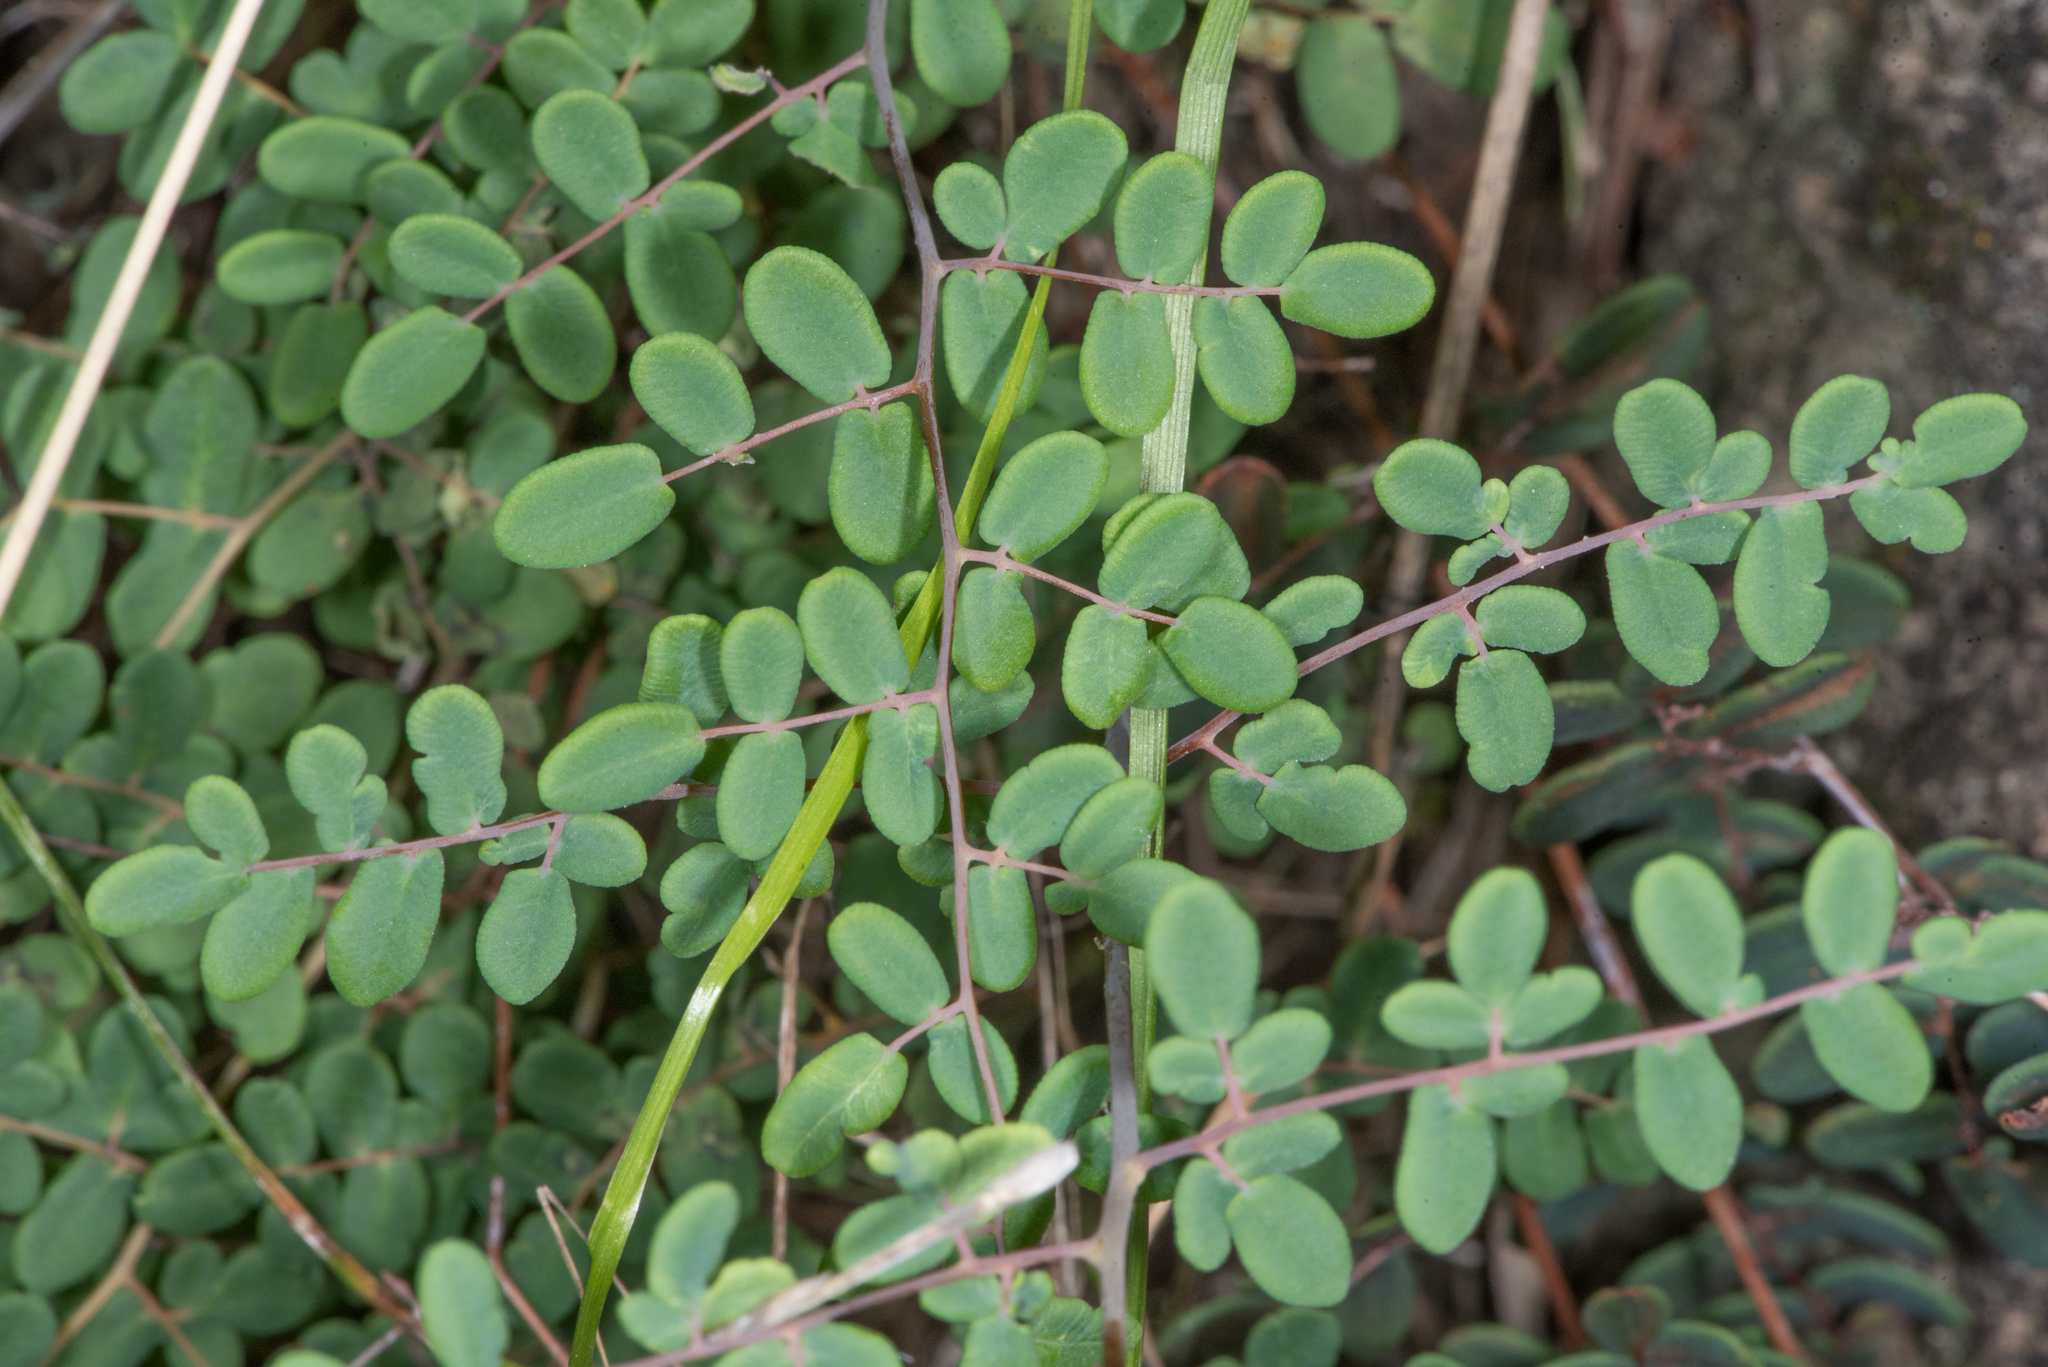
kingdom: Plantae
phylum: Tracheophyta
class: Polypodiopsida
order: Polypodiales
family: Pteridaceae
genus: Pellaea
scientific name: Pellaea andromedifolia
